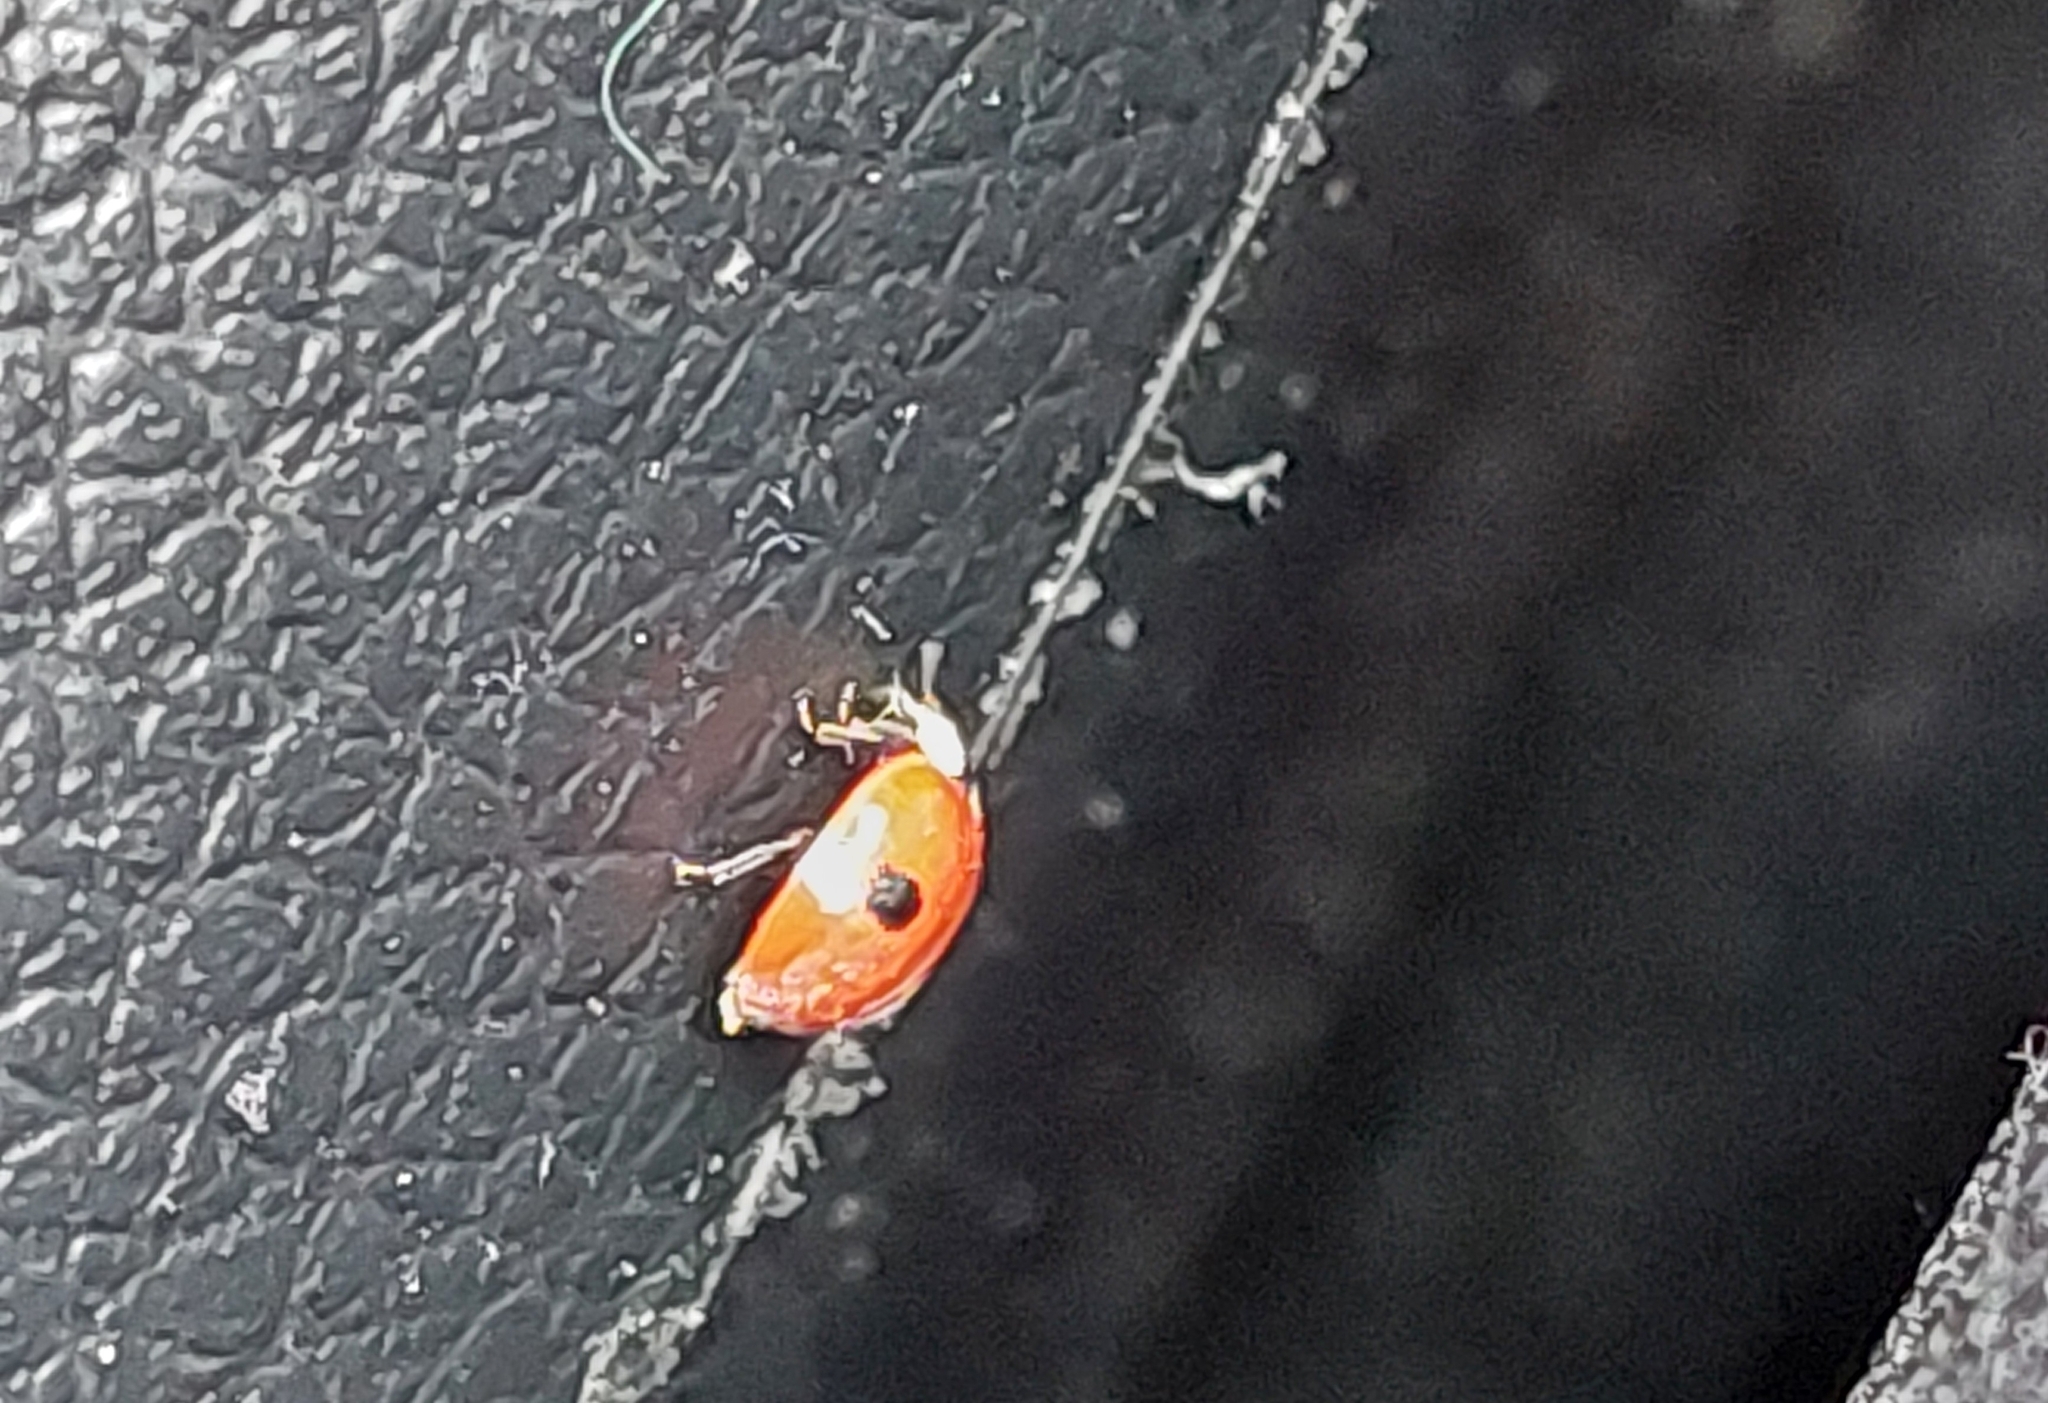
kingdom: Animalia
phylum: Arthropoda
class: Insecta
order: Coleoptera
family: Coccinellidae
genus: Adalia
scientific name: Adalia bipunctata
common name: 2-spot ladybird
